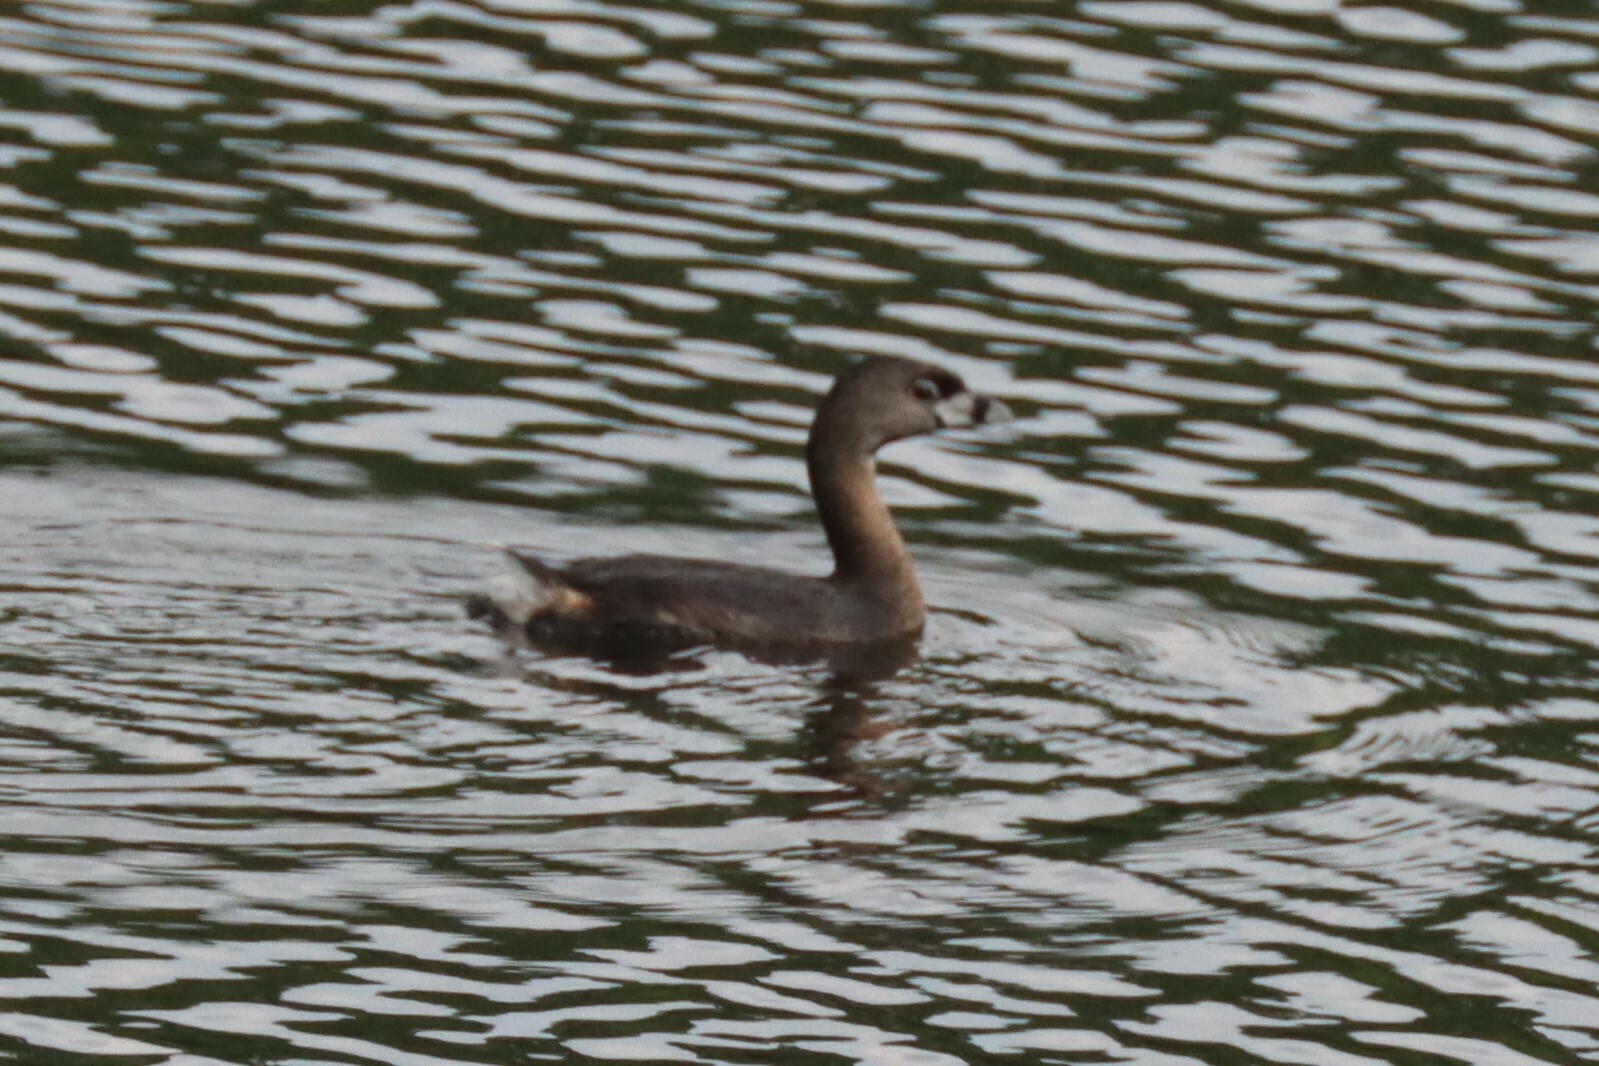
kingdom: Animalia
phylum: Chordata
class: Aves
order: Podicipediformes
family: Podicipedidae
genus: Podilymbus
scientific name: Podilymbus podiceps
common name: Pied-billed grebe
